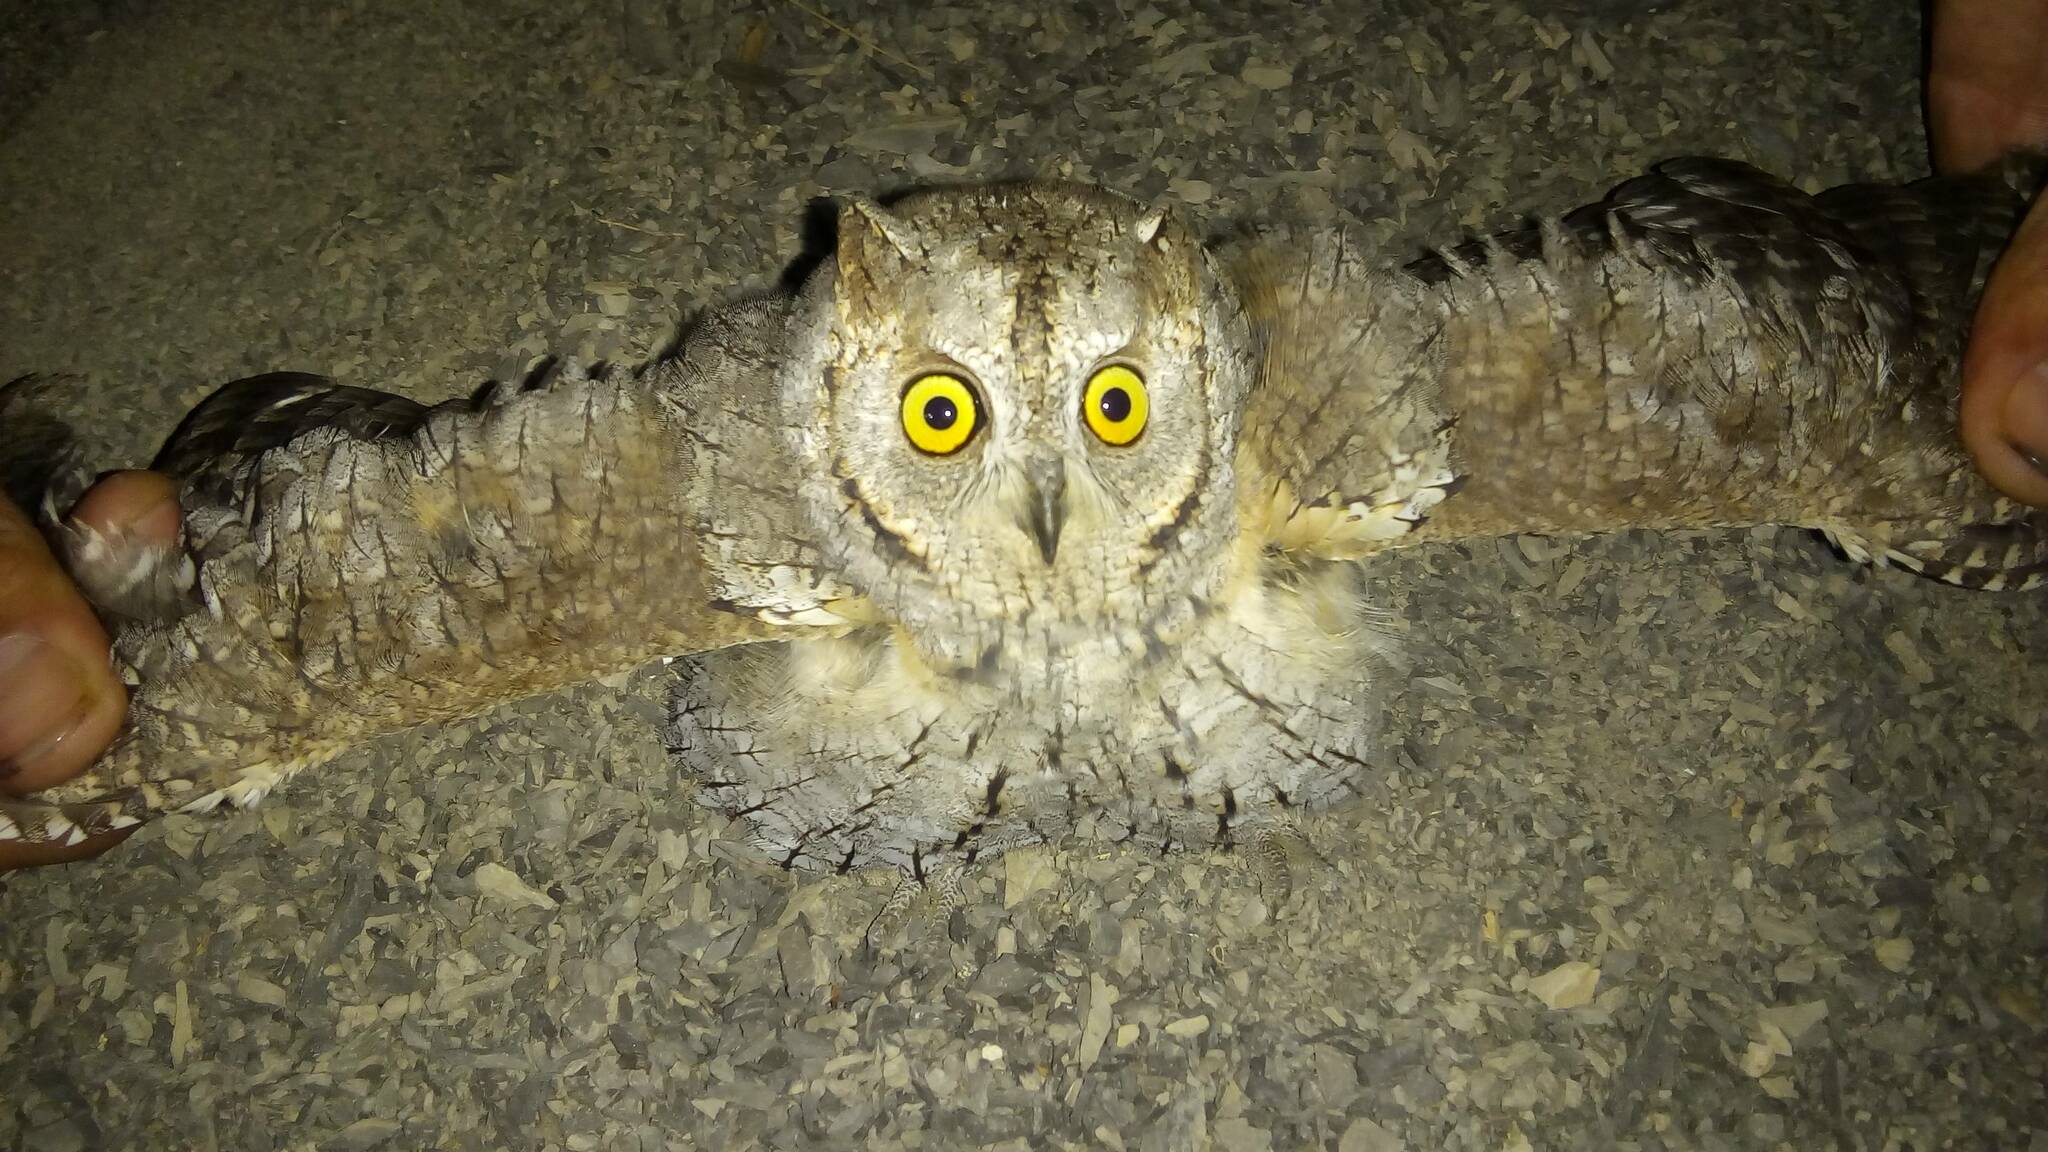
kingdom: Animalia
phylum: Chordata
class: Aves
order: Strigiformes
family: Strigidae
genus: Otus
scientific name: Otus scops
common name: Eurasian scops owl
